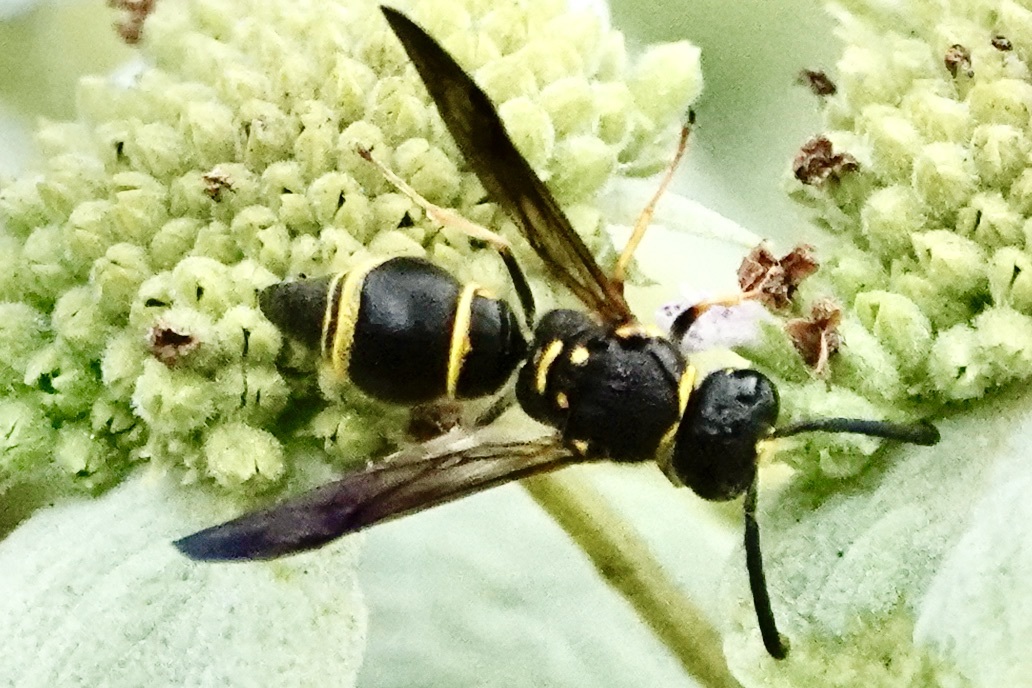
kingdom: Animalia
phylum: Arthropoda
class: Insecta
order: Hymenoptera
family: Vespidae
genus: Ancistrocerus
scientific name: Ancistrocerus campestris
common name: Smiling mason wasp
